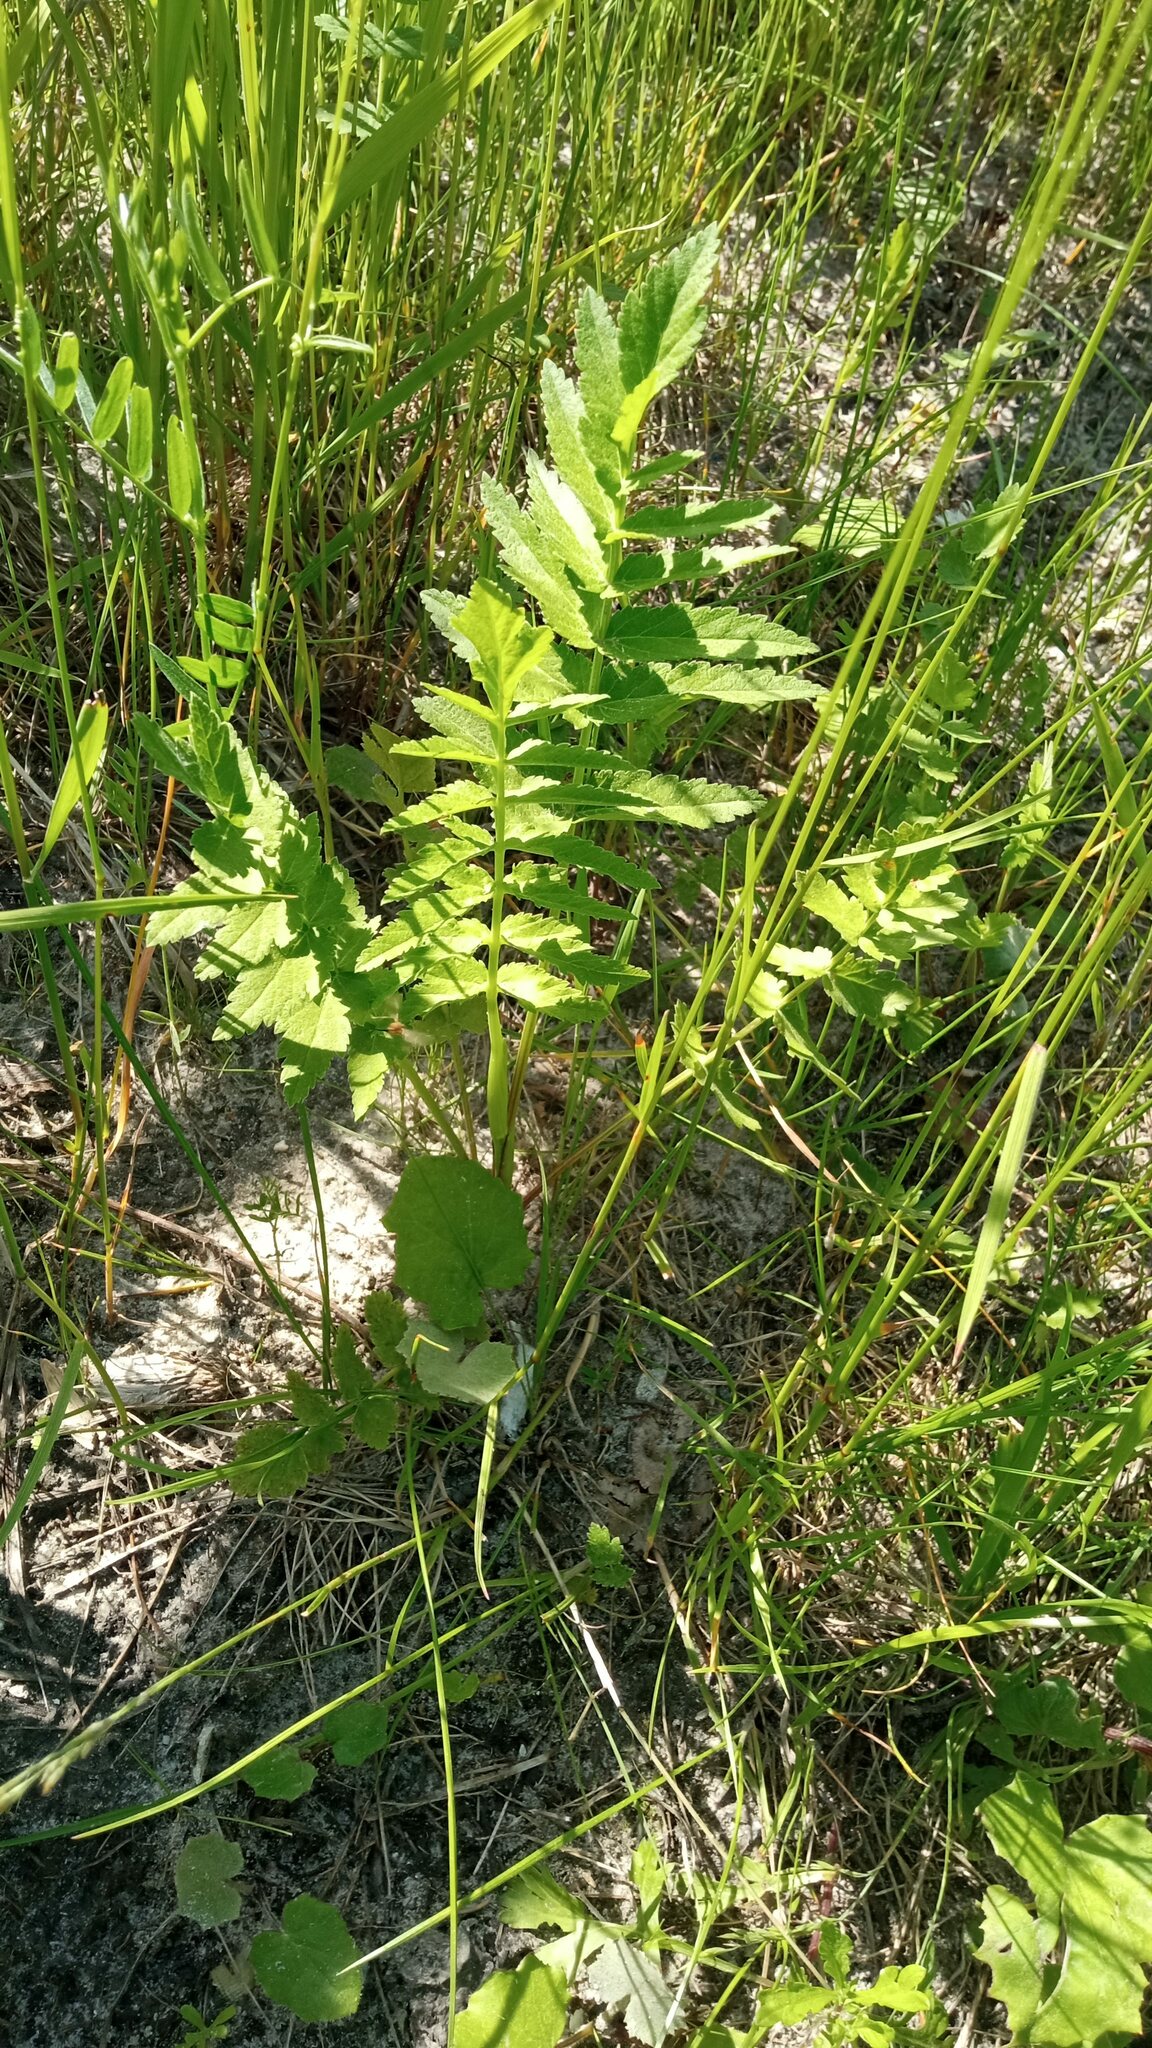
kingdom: Plantae
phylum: Tracheophyta
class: Magnoliopsida
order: Apiales
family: Apiaceae
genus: Pastinaca
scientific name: Pastinaca sativa
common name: Wild parsnip
